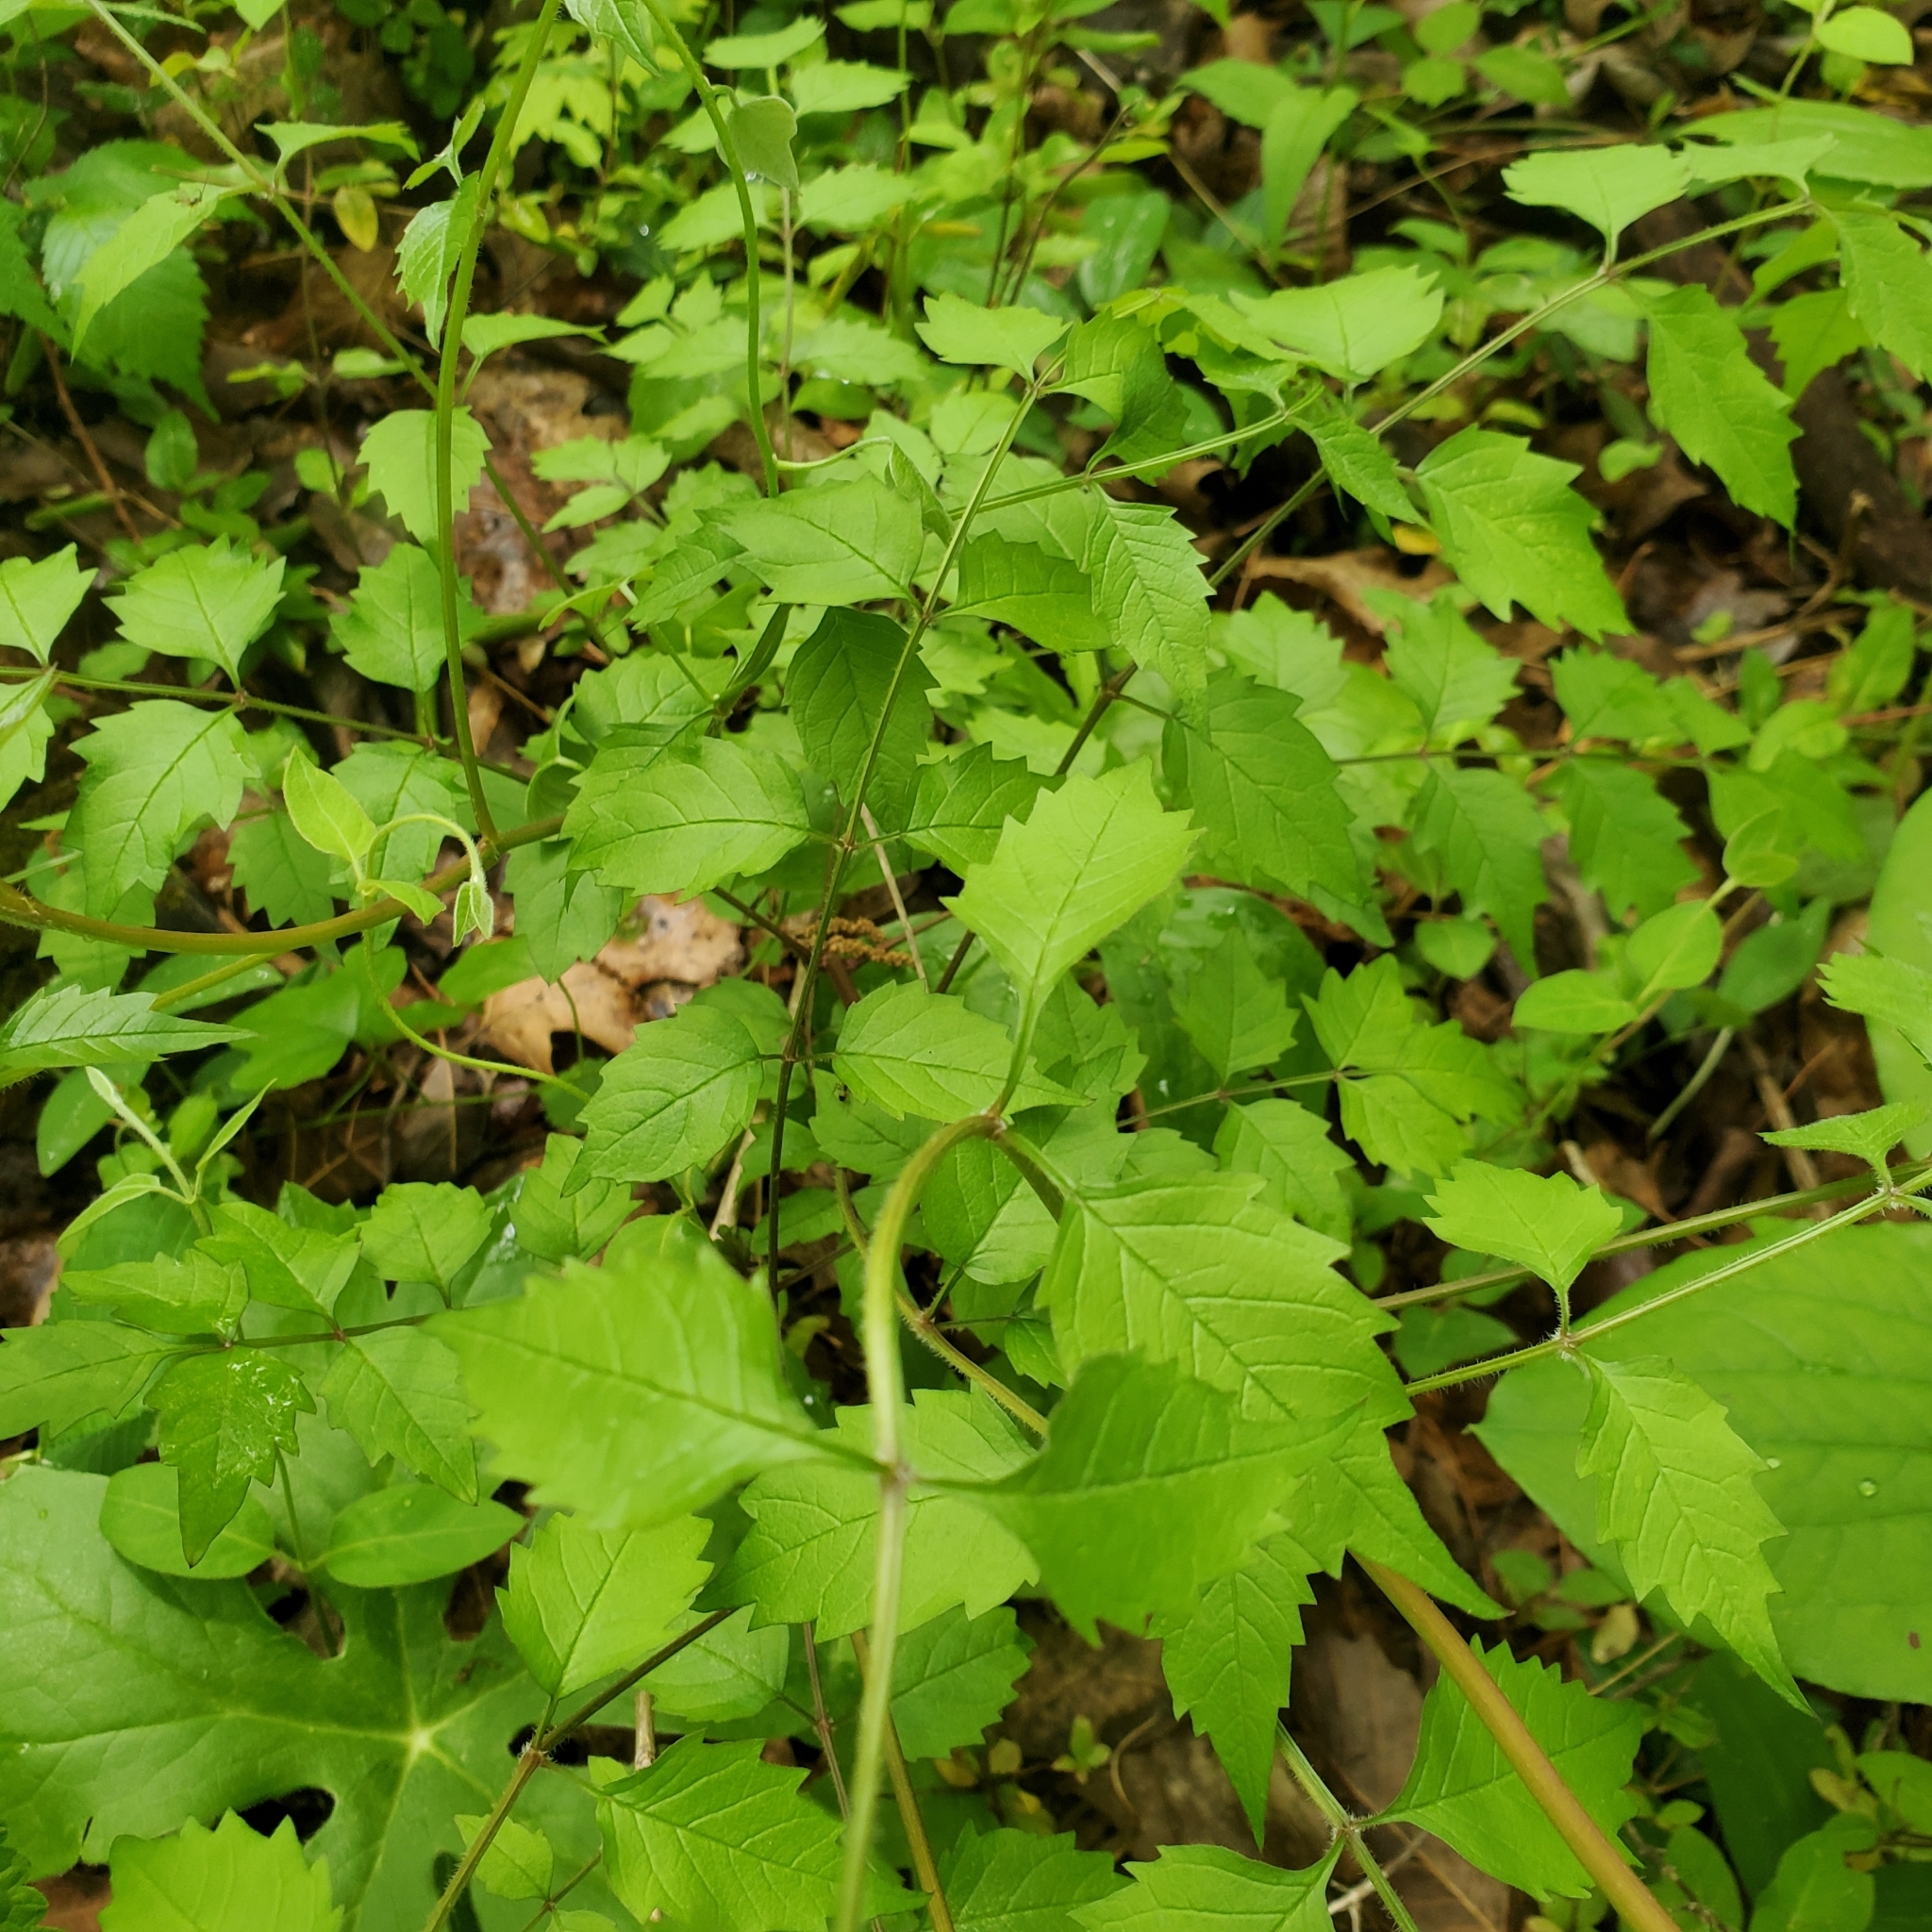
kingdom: Plantae
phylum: Tracheophyta
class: Magnoliopsida
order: Lamiales
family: Bignoniaceae
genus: Campsis
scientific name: Campsis radicans
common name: Trumpet-creeper
